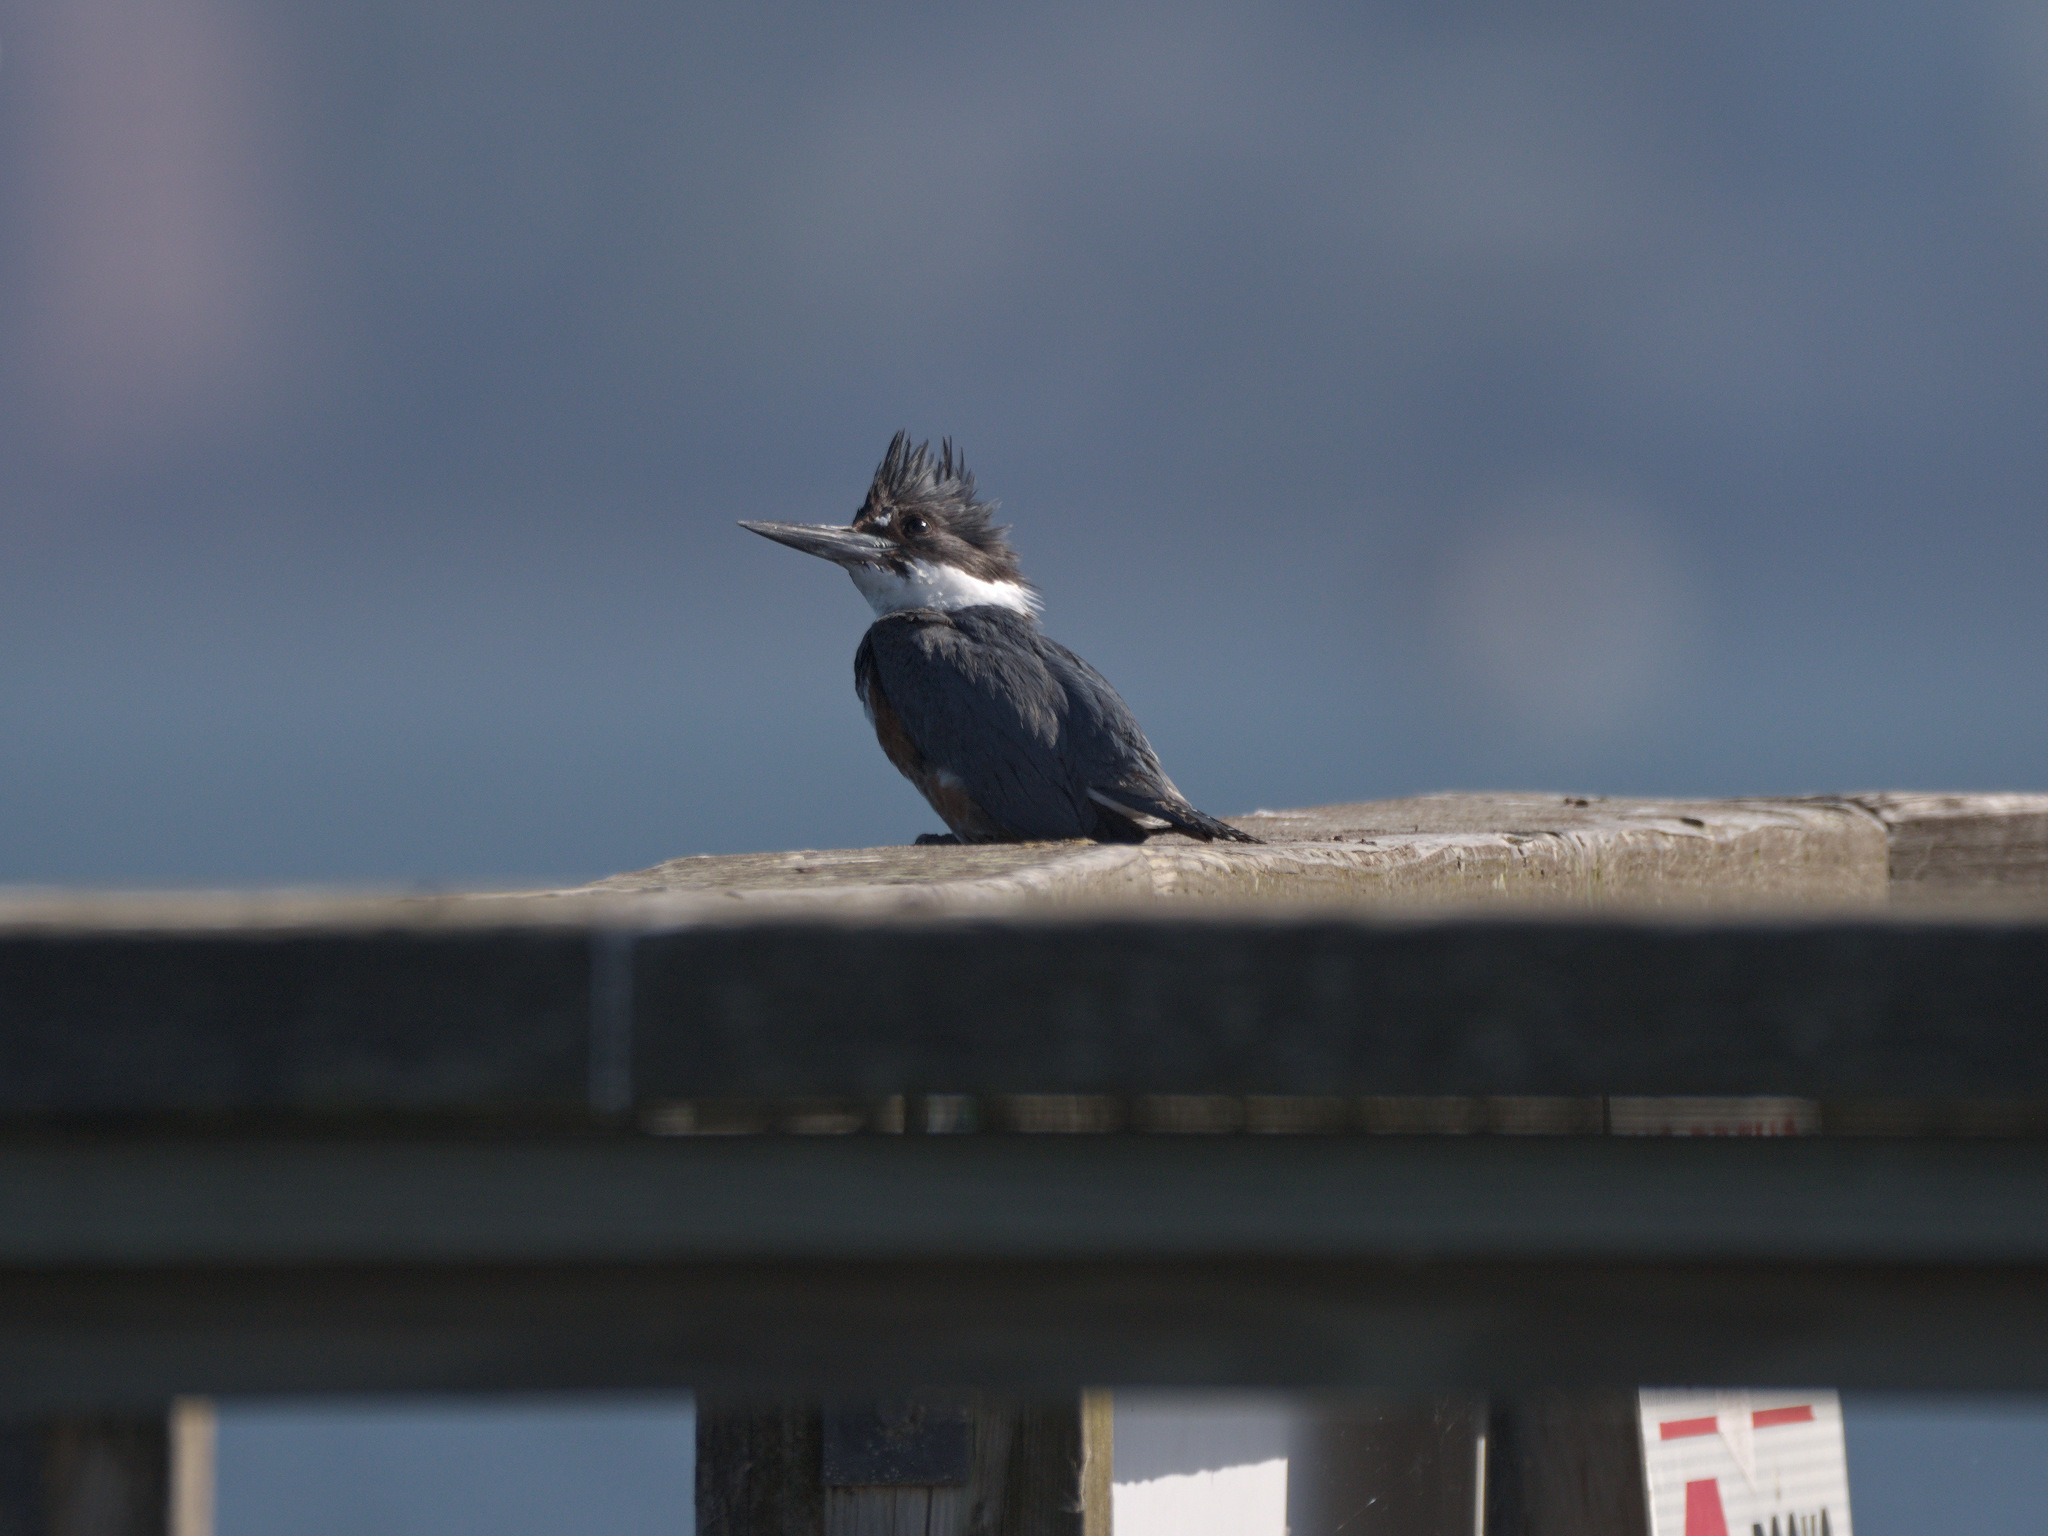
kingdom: Animalia
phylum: Chordata
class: Aves
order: Coraciiformes
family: Alcedinidae
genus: Megaceryle
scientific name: Megaceryle alcyon
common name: Belted kingfisher
